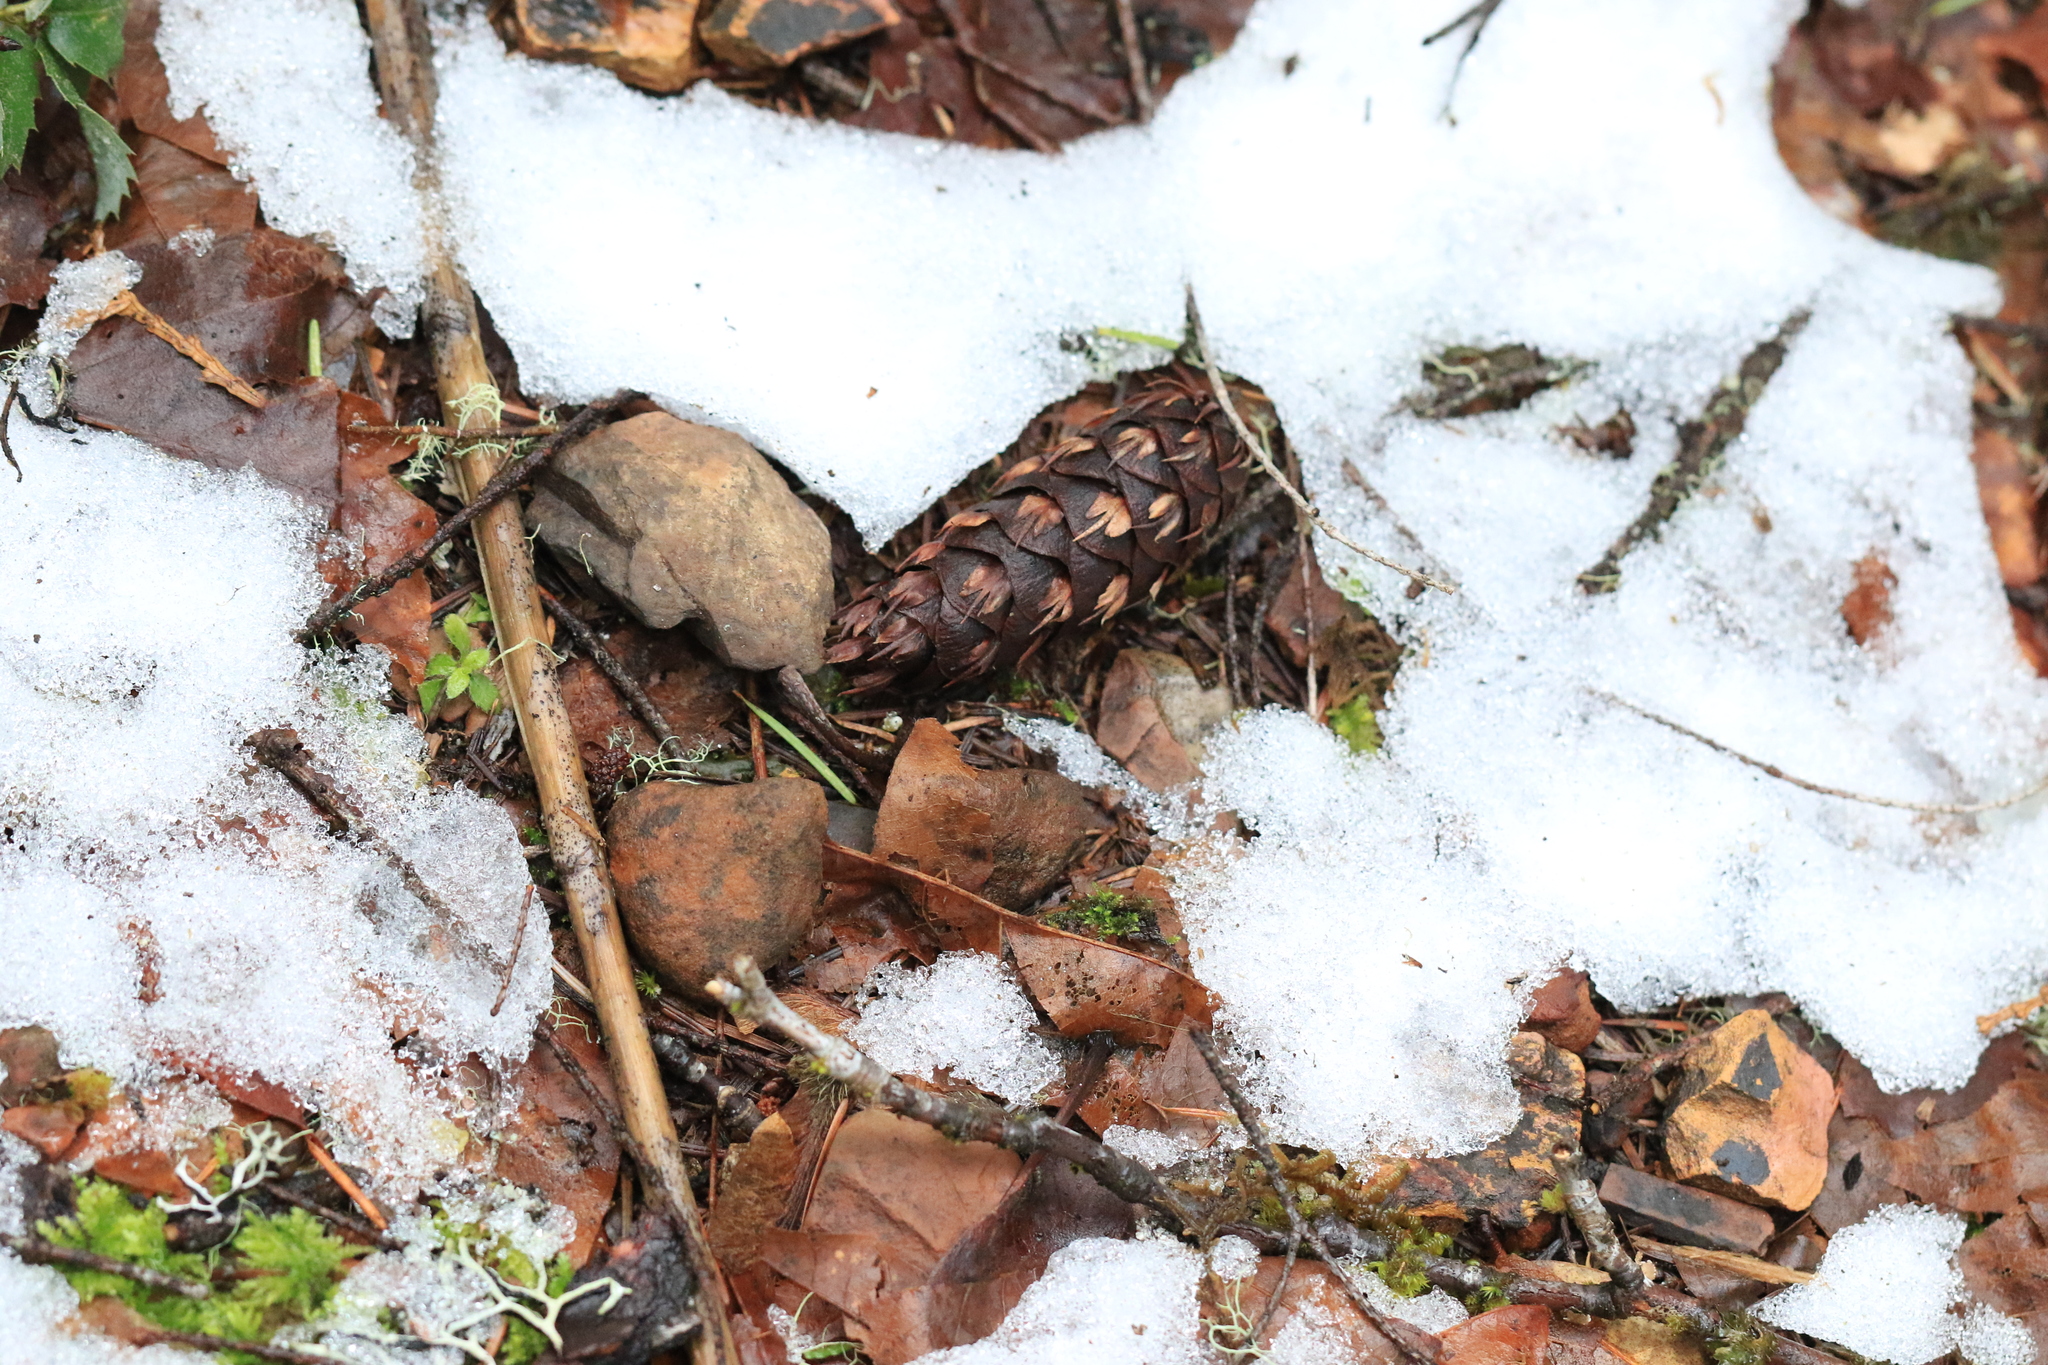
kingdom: Plantae
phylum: Tracheophyta
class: Pinopsida
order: Pinales
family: Pinaceae
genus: Pseudotsuga
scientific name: Pseudotsuga menziesii
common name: Douglas fir
